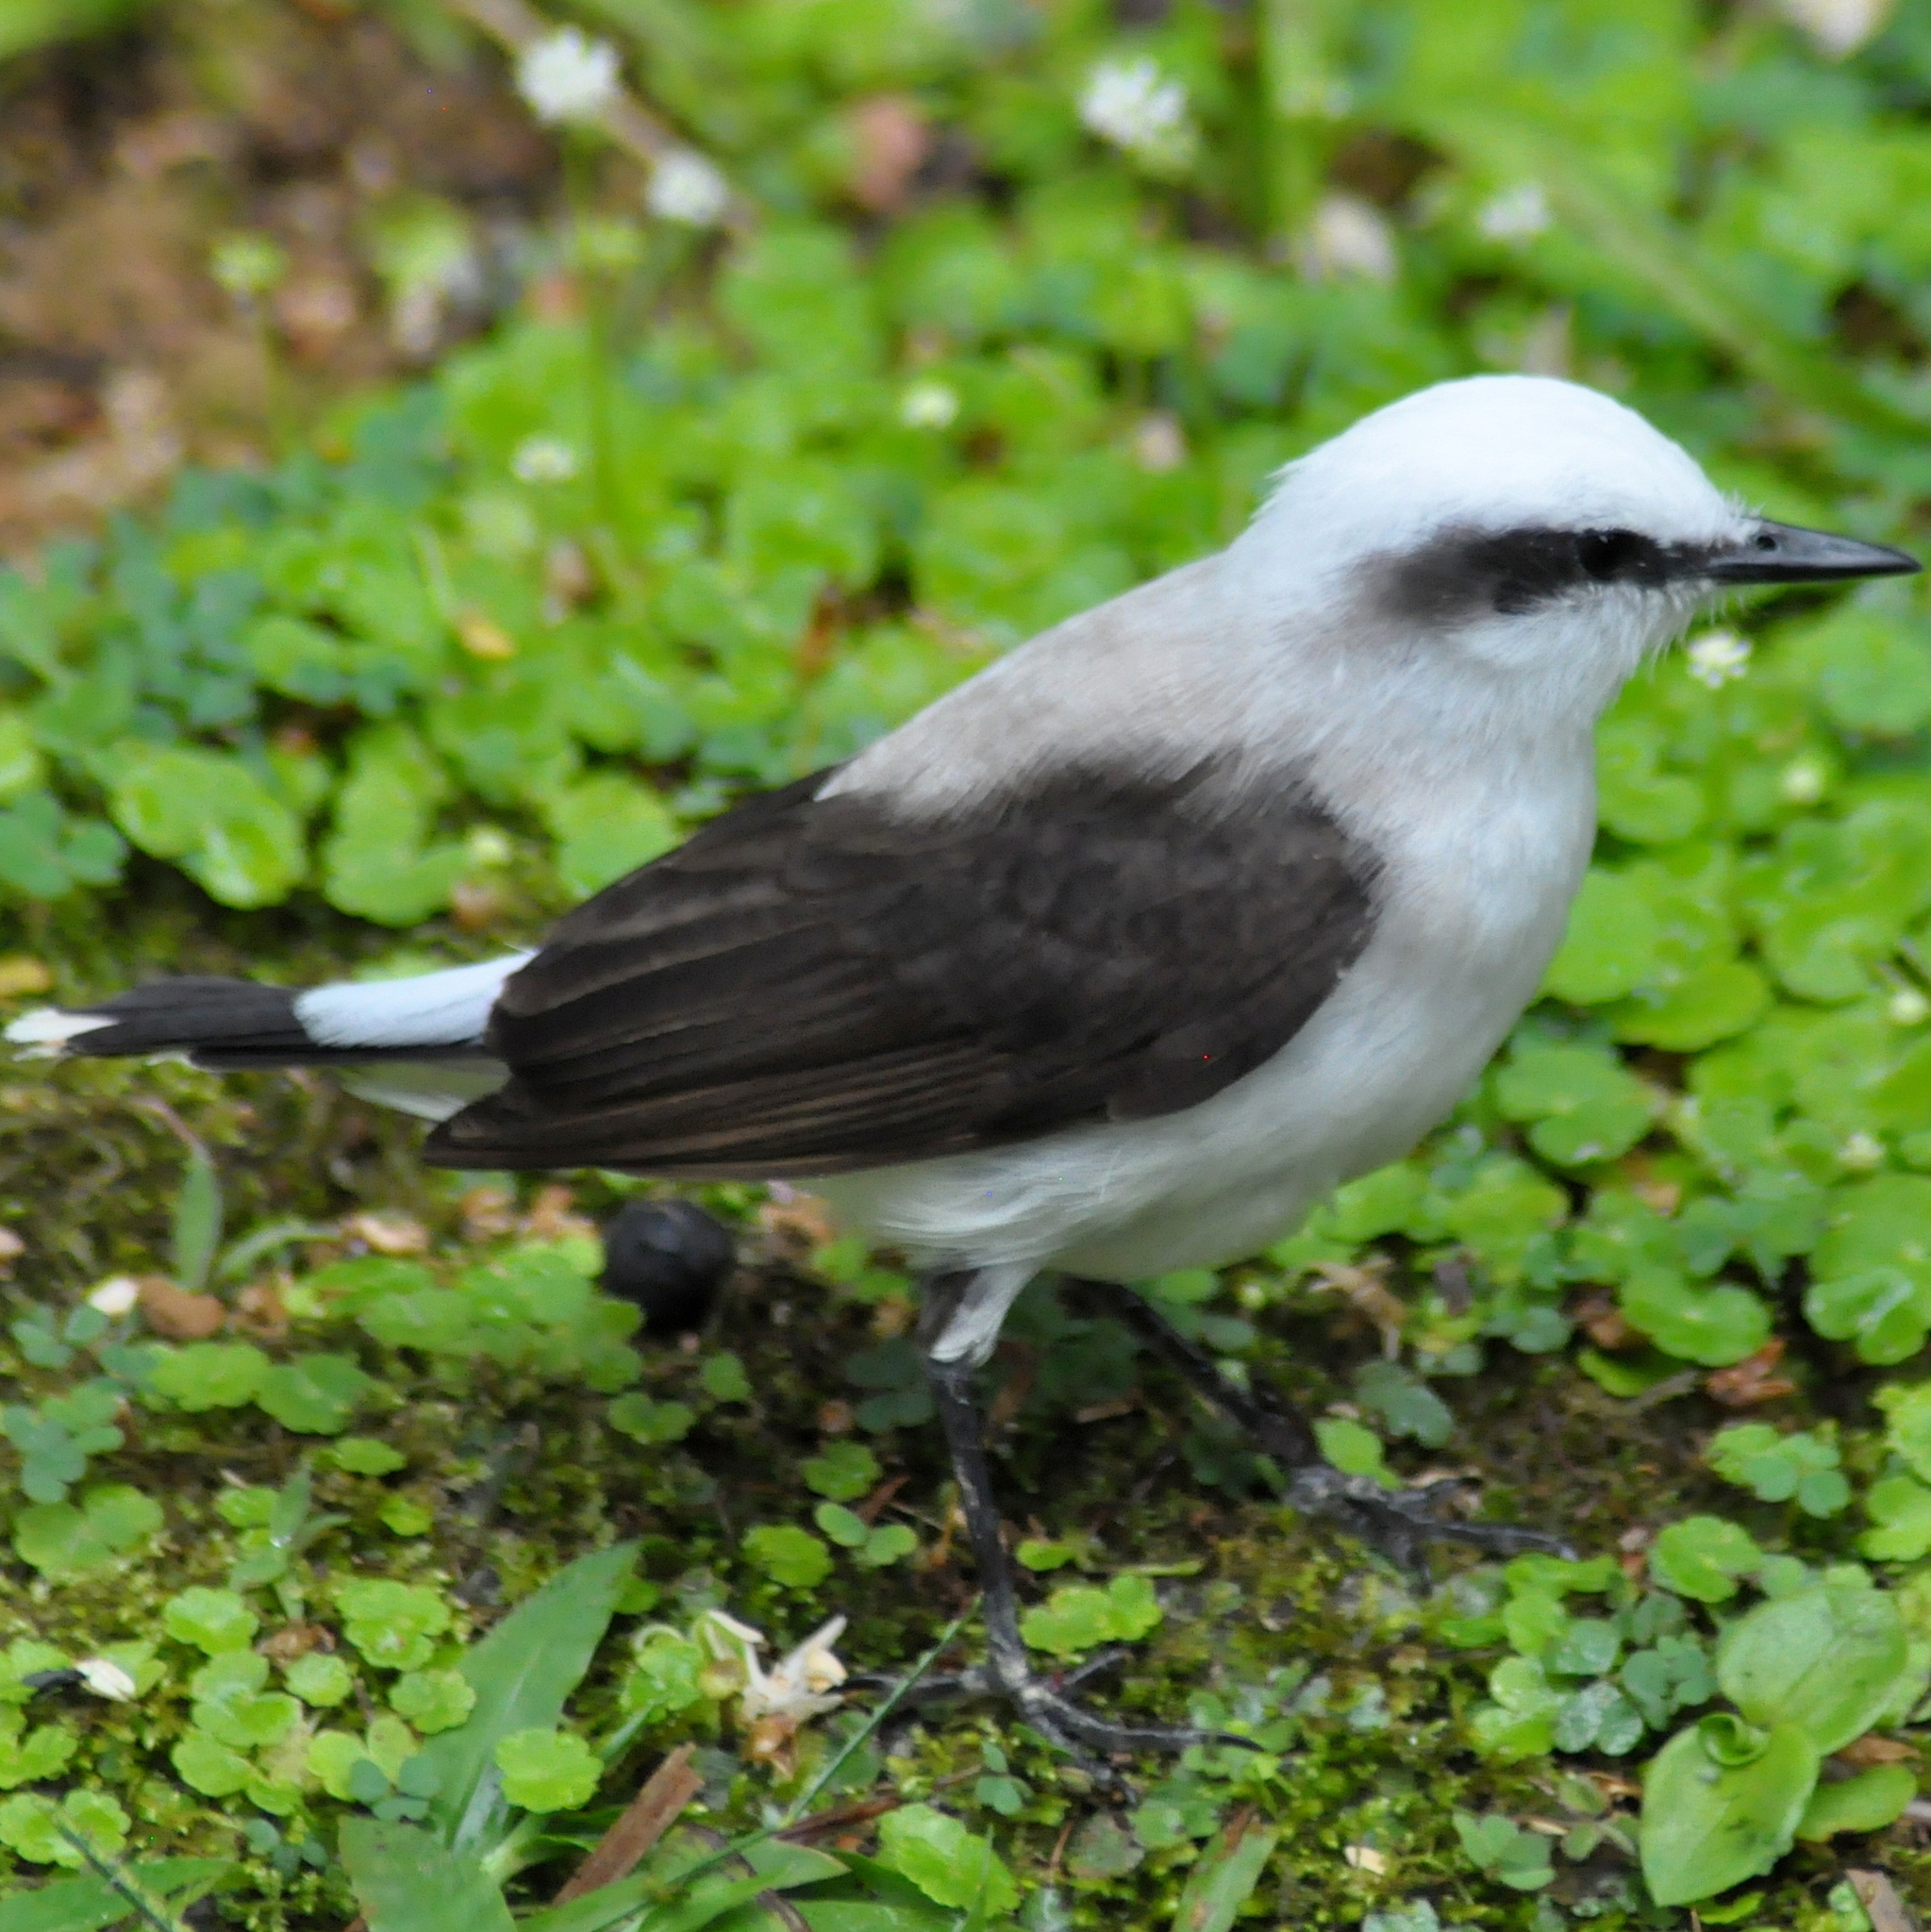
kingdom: Animalia
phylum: Chordata
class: Aves
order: Passeriformes
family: Tyrannidae
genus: Fluvicola
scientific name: Fluvicola nengeta
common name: Masked water tyrant
